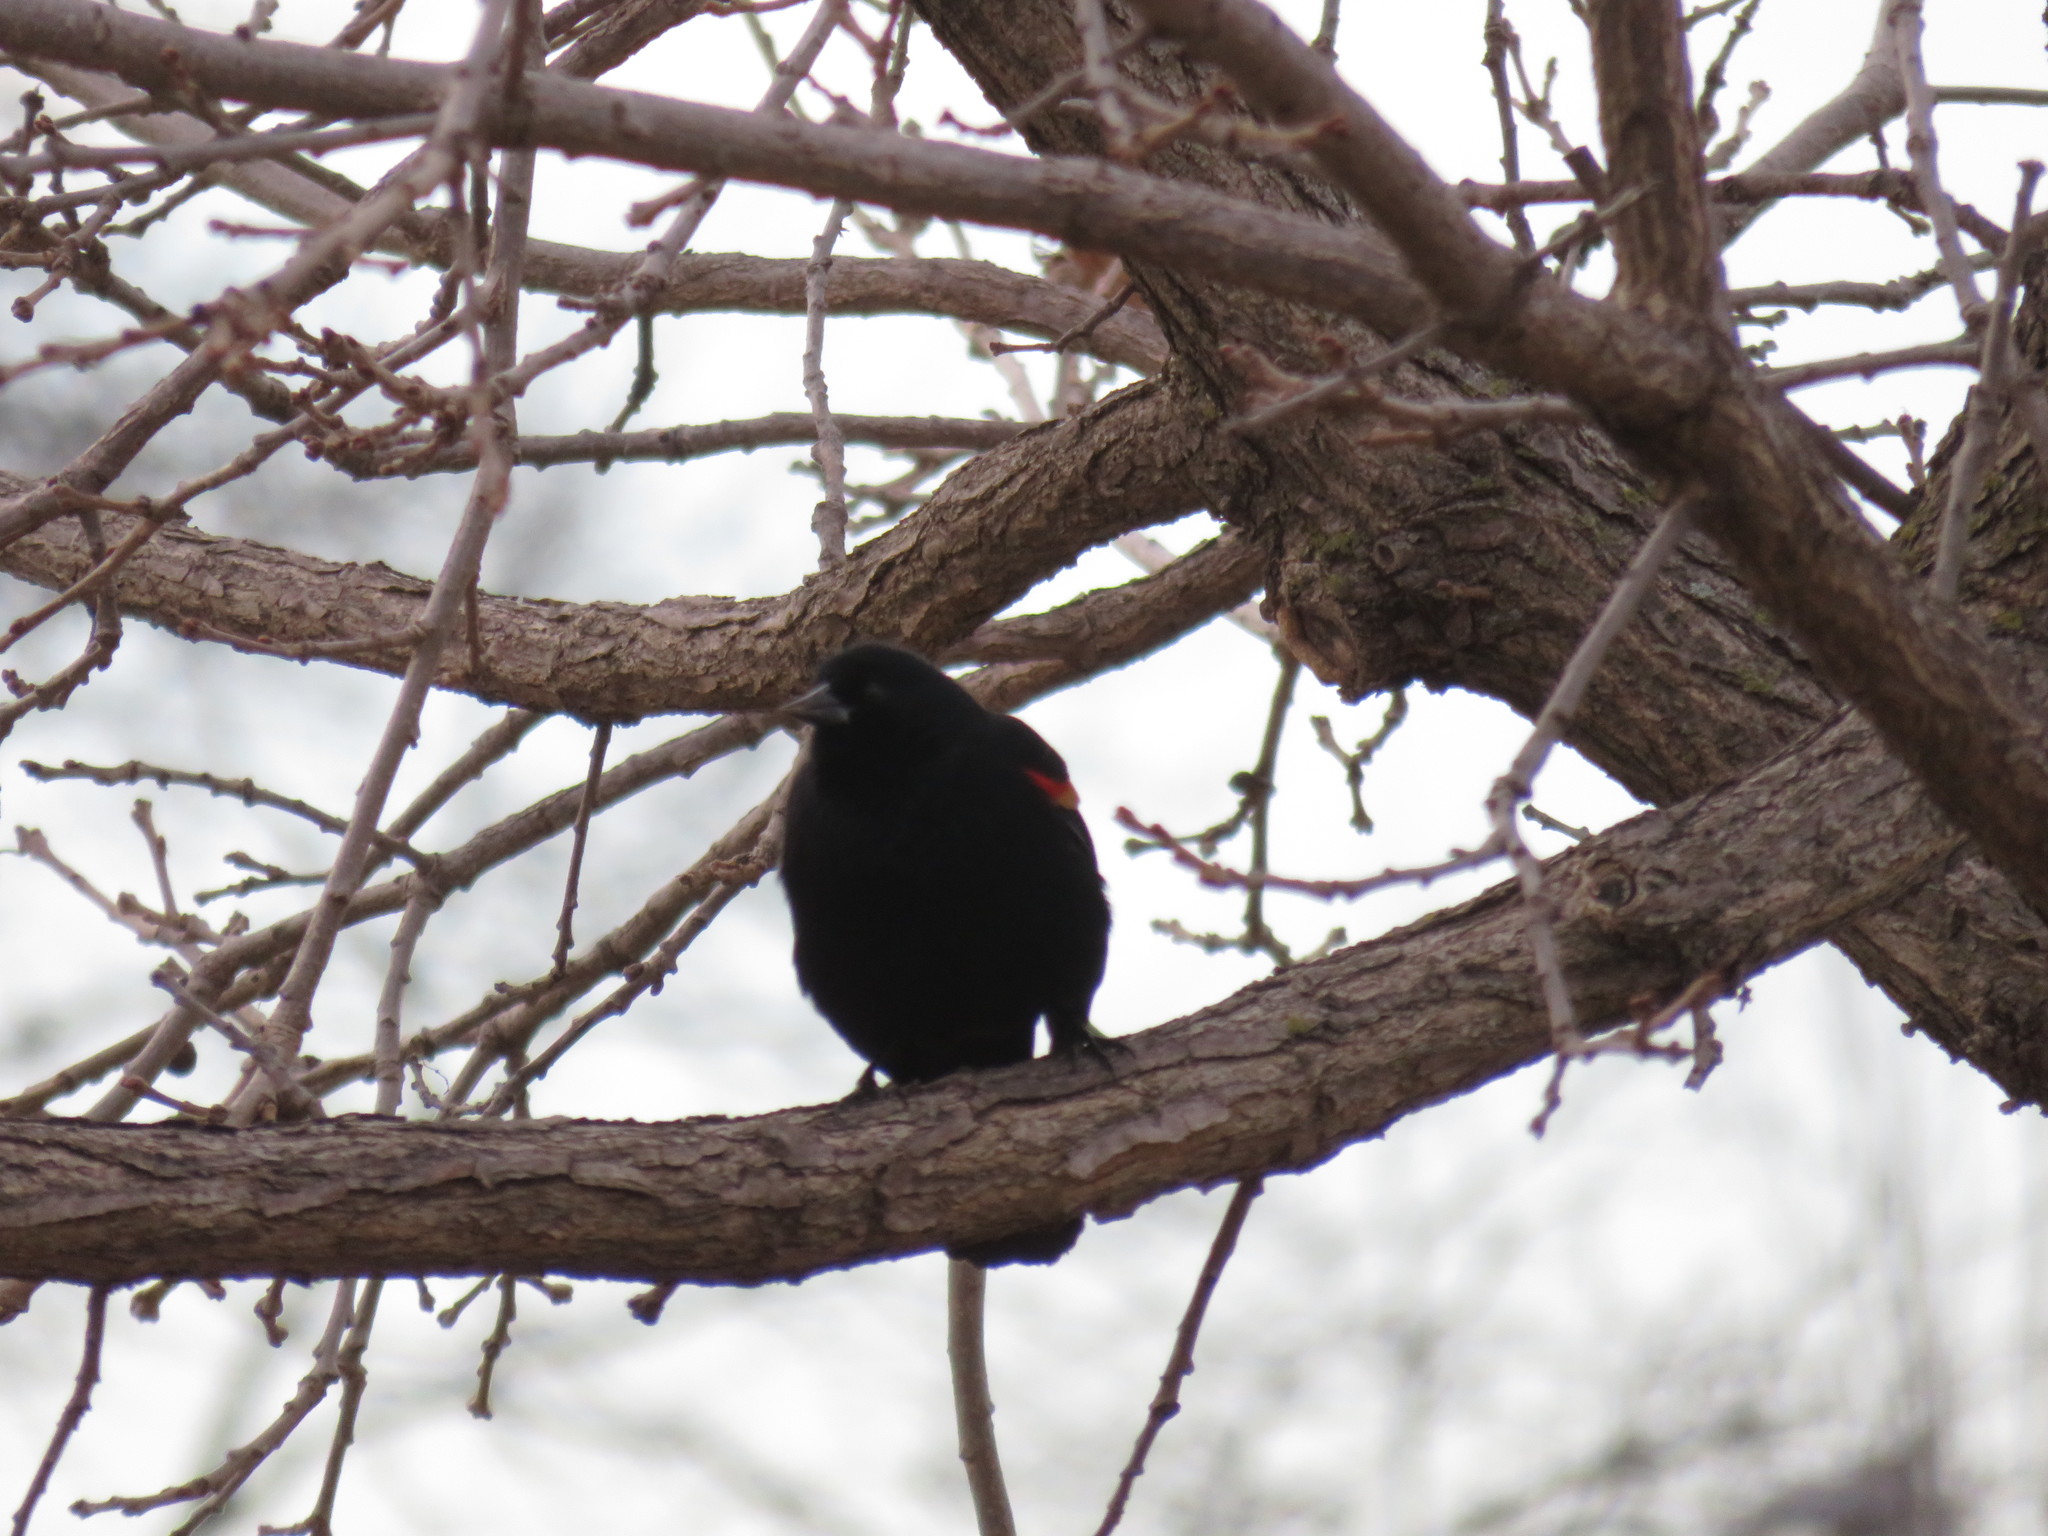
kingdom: Animalia
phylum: Chordata
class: Aves
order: Passeriformes
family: Icteridae
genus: Agelaius
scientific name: Agelaius phoeniceus
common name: Red-winged blackbird
